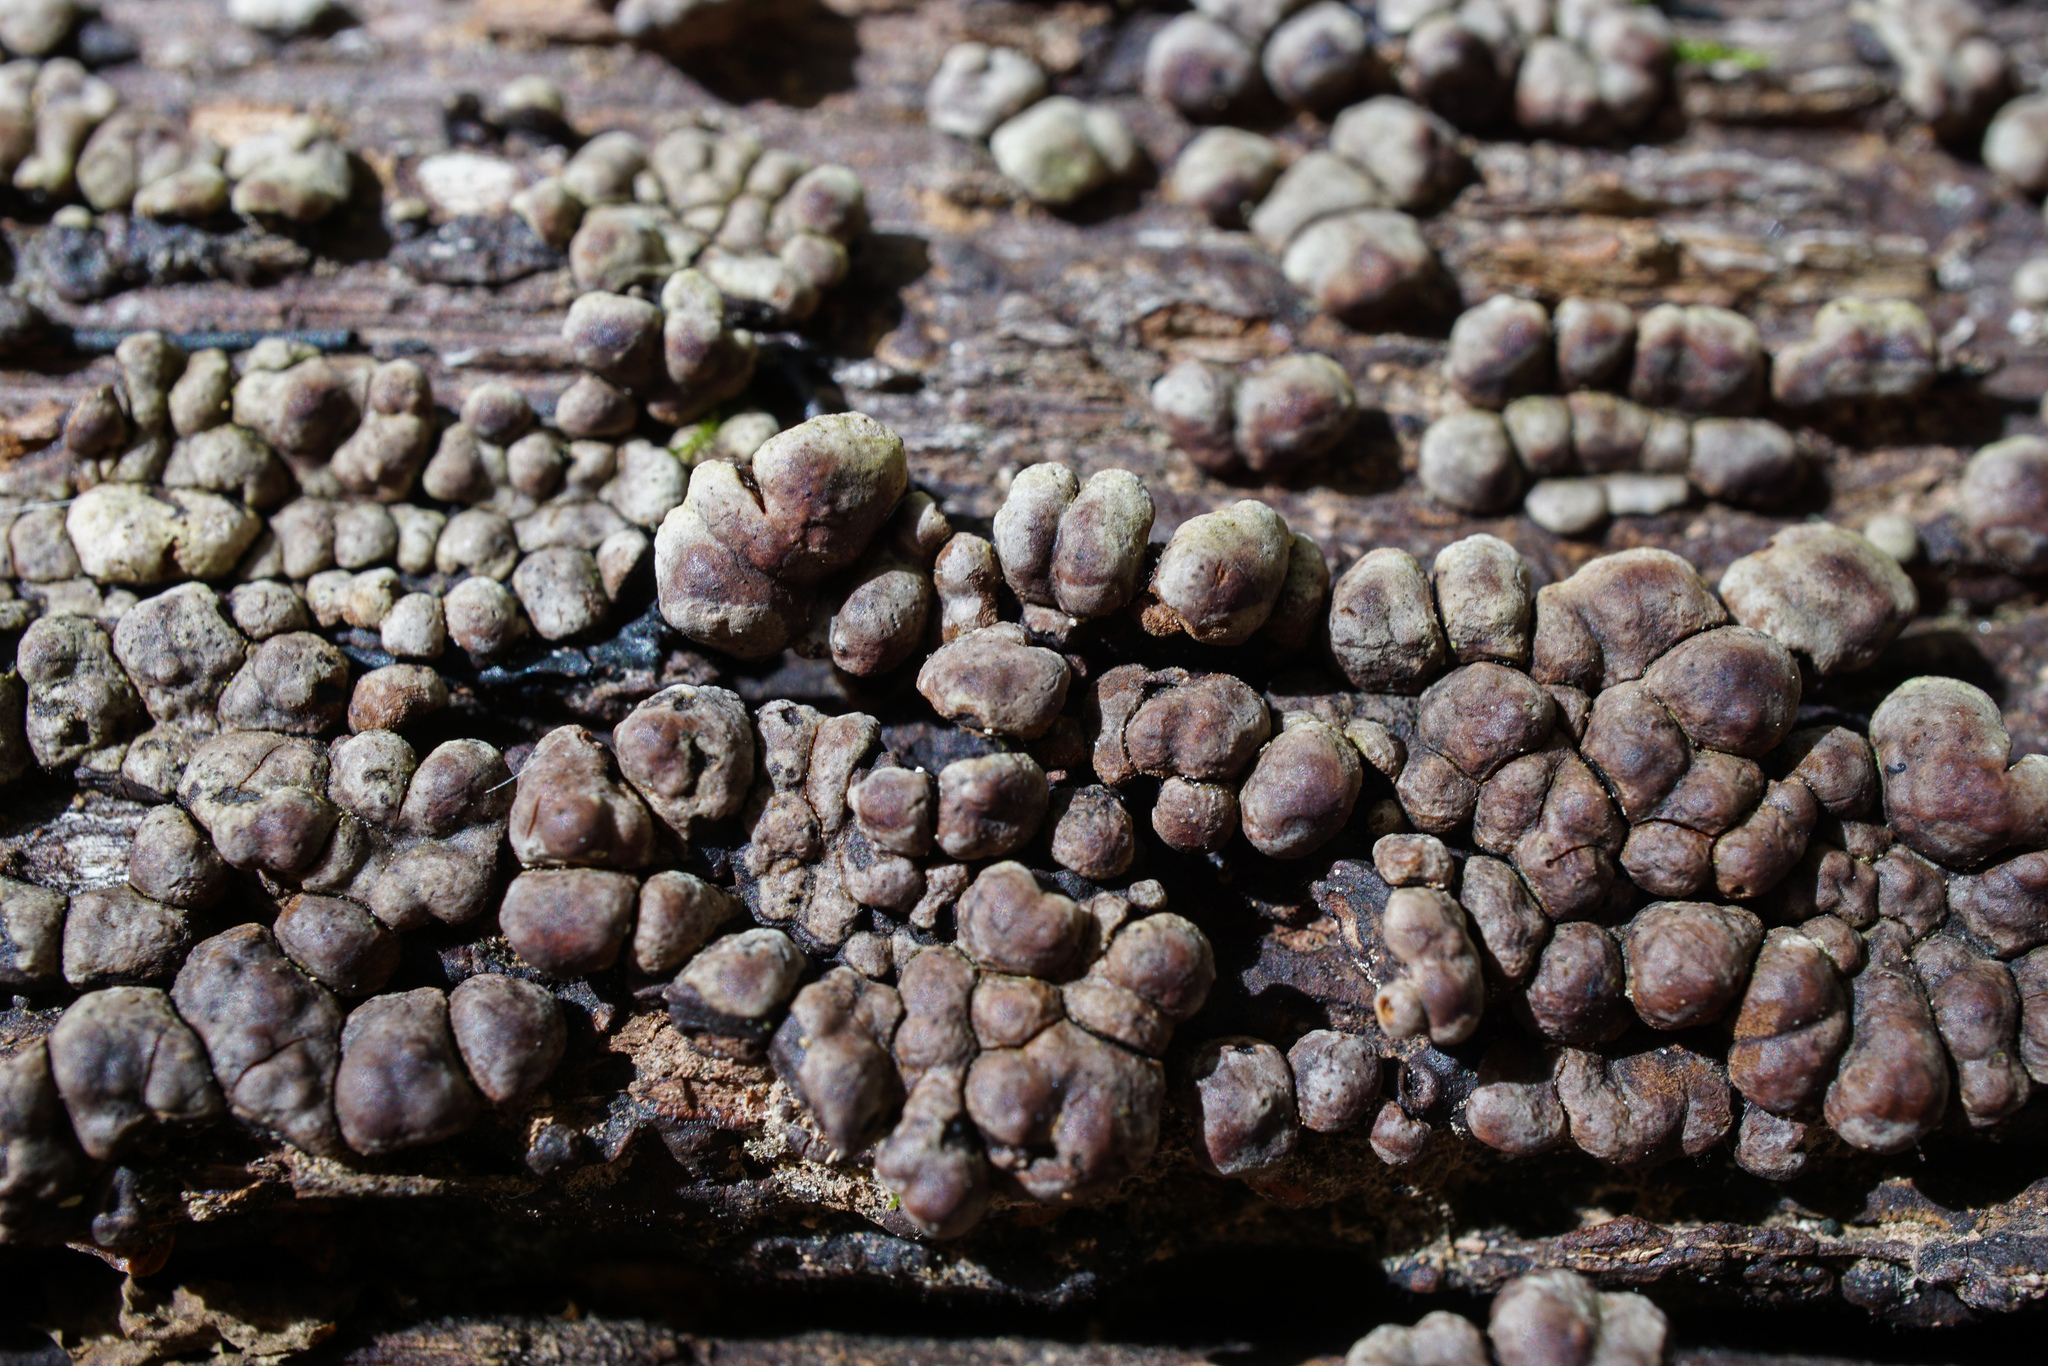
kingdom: Fungi
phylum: Basidiomycota
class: Agaricomycetes
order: Russulales
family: Stereaceae
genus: Xylobolus
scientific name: Xylobolus frustulatus
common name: Ceramic parchment
